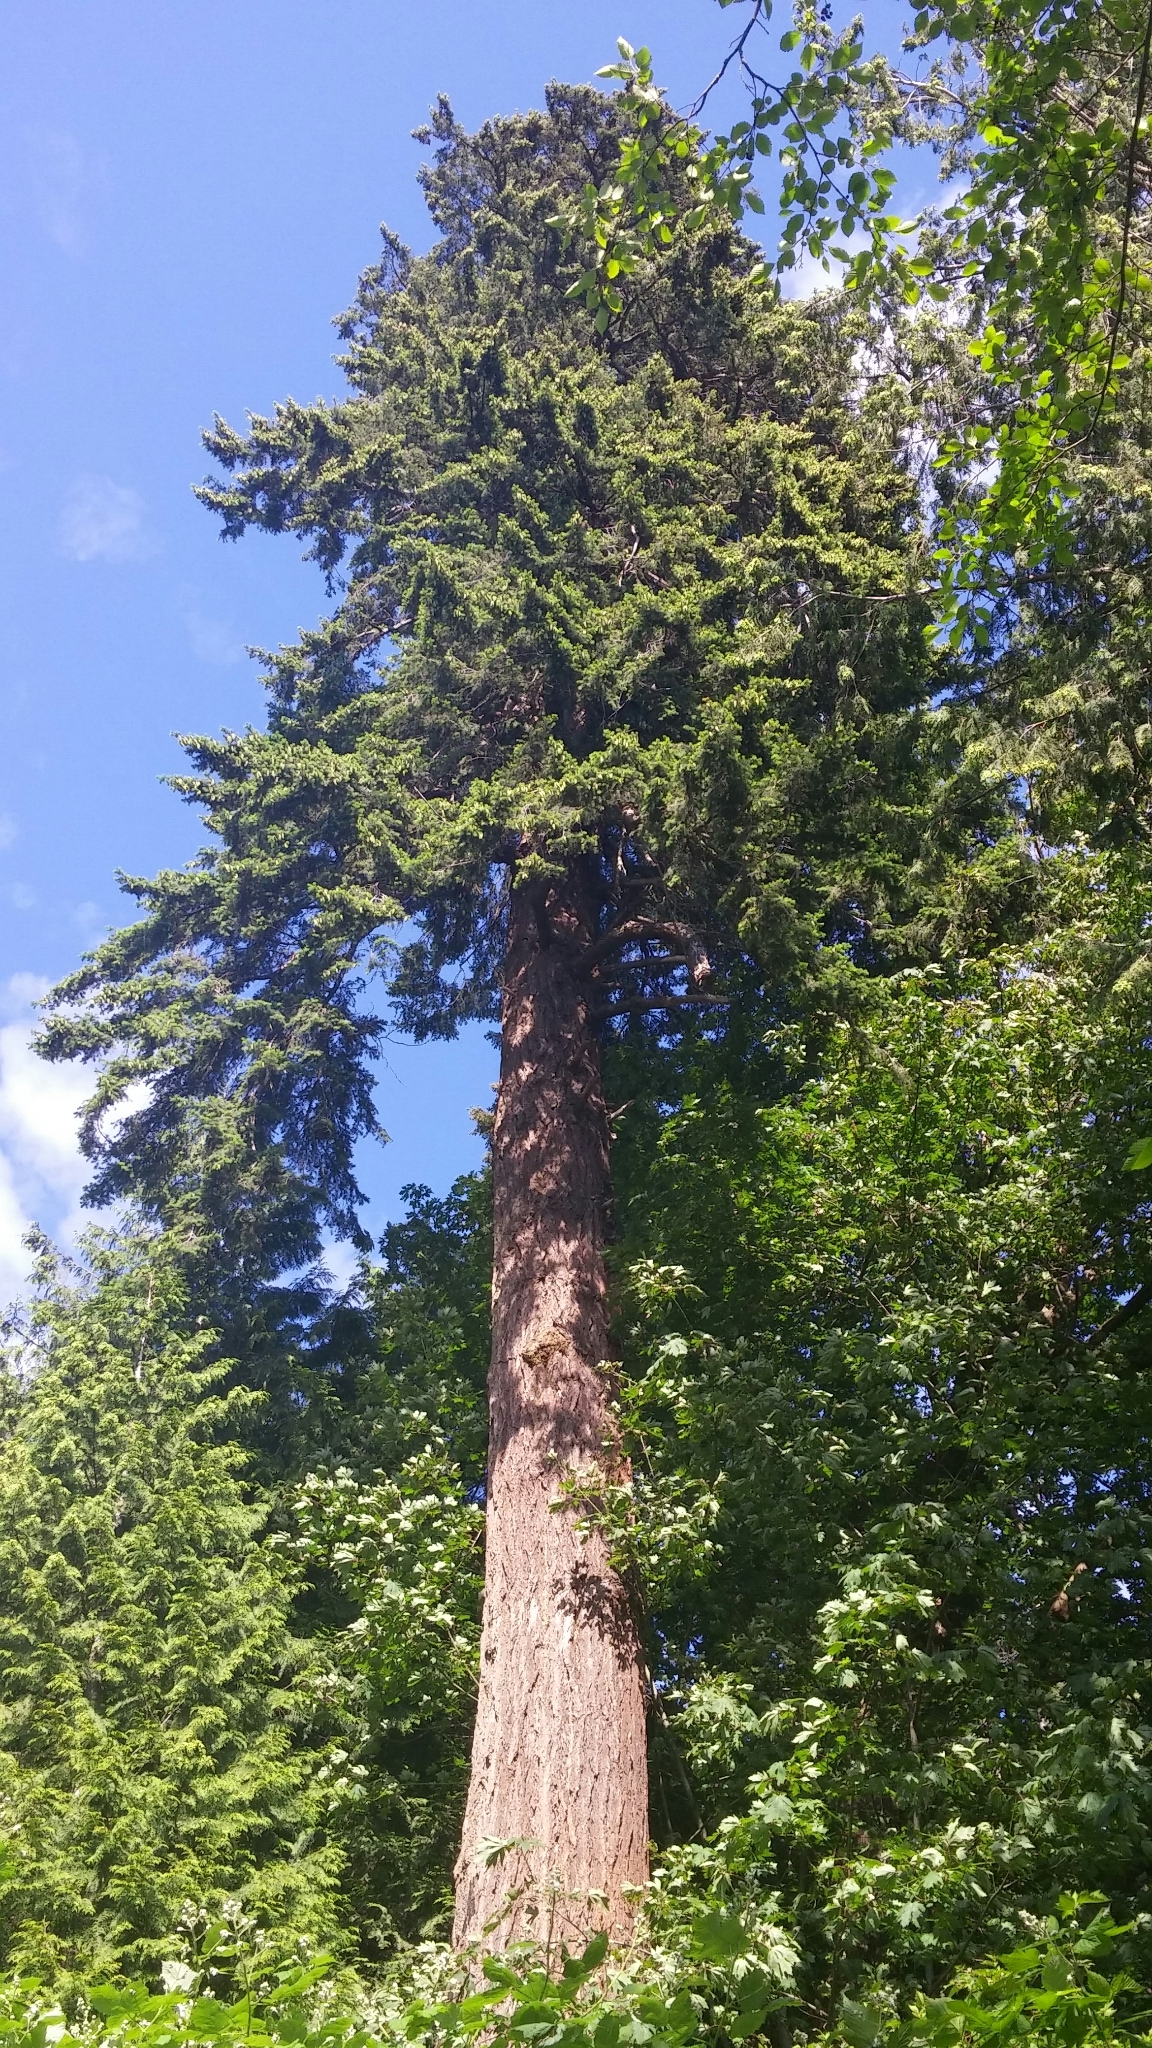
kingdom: Plantae
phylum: Tracheophyta
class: Pinopsida
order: Pinales
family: Pinaceae
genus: Pseudotsuga
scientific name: Pseudotsuga menziesii
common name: Douglas fir
